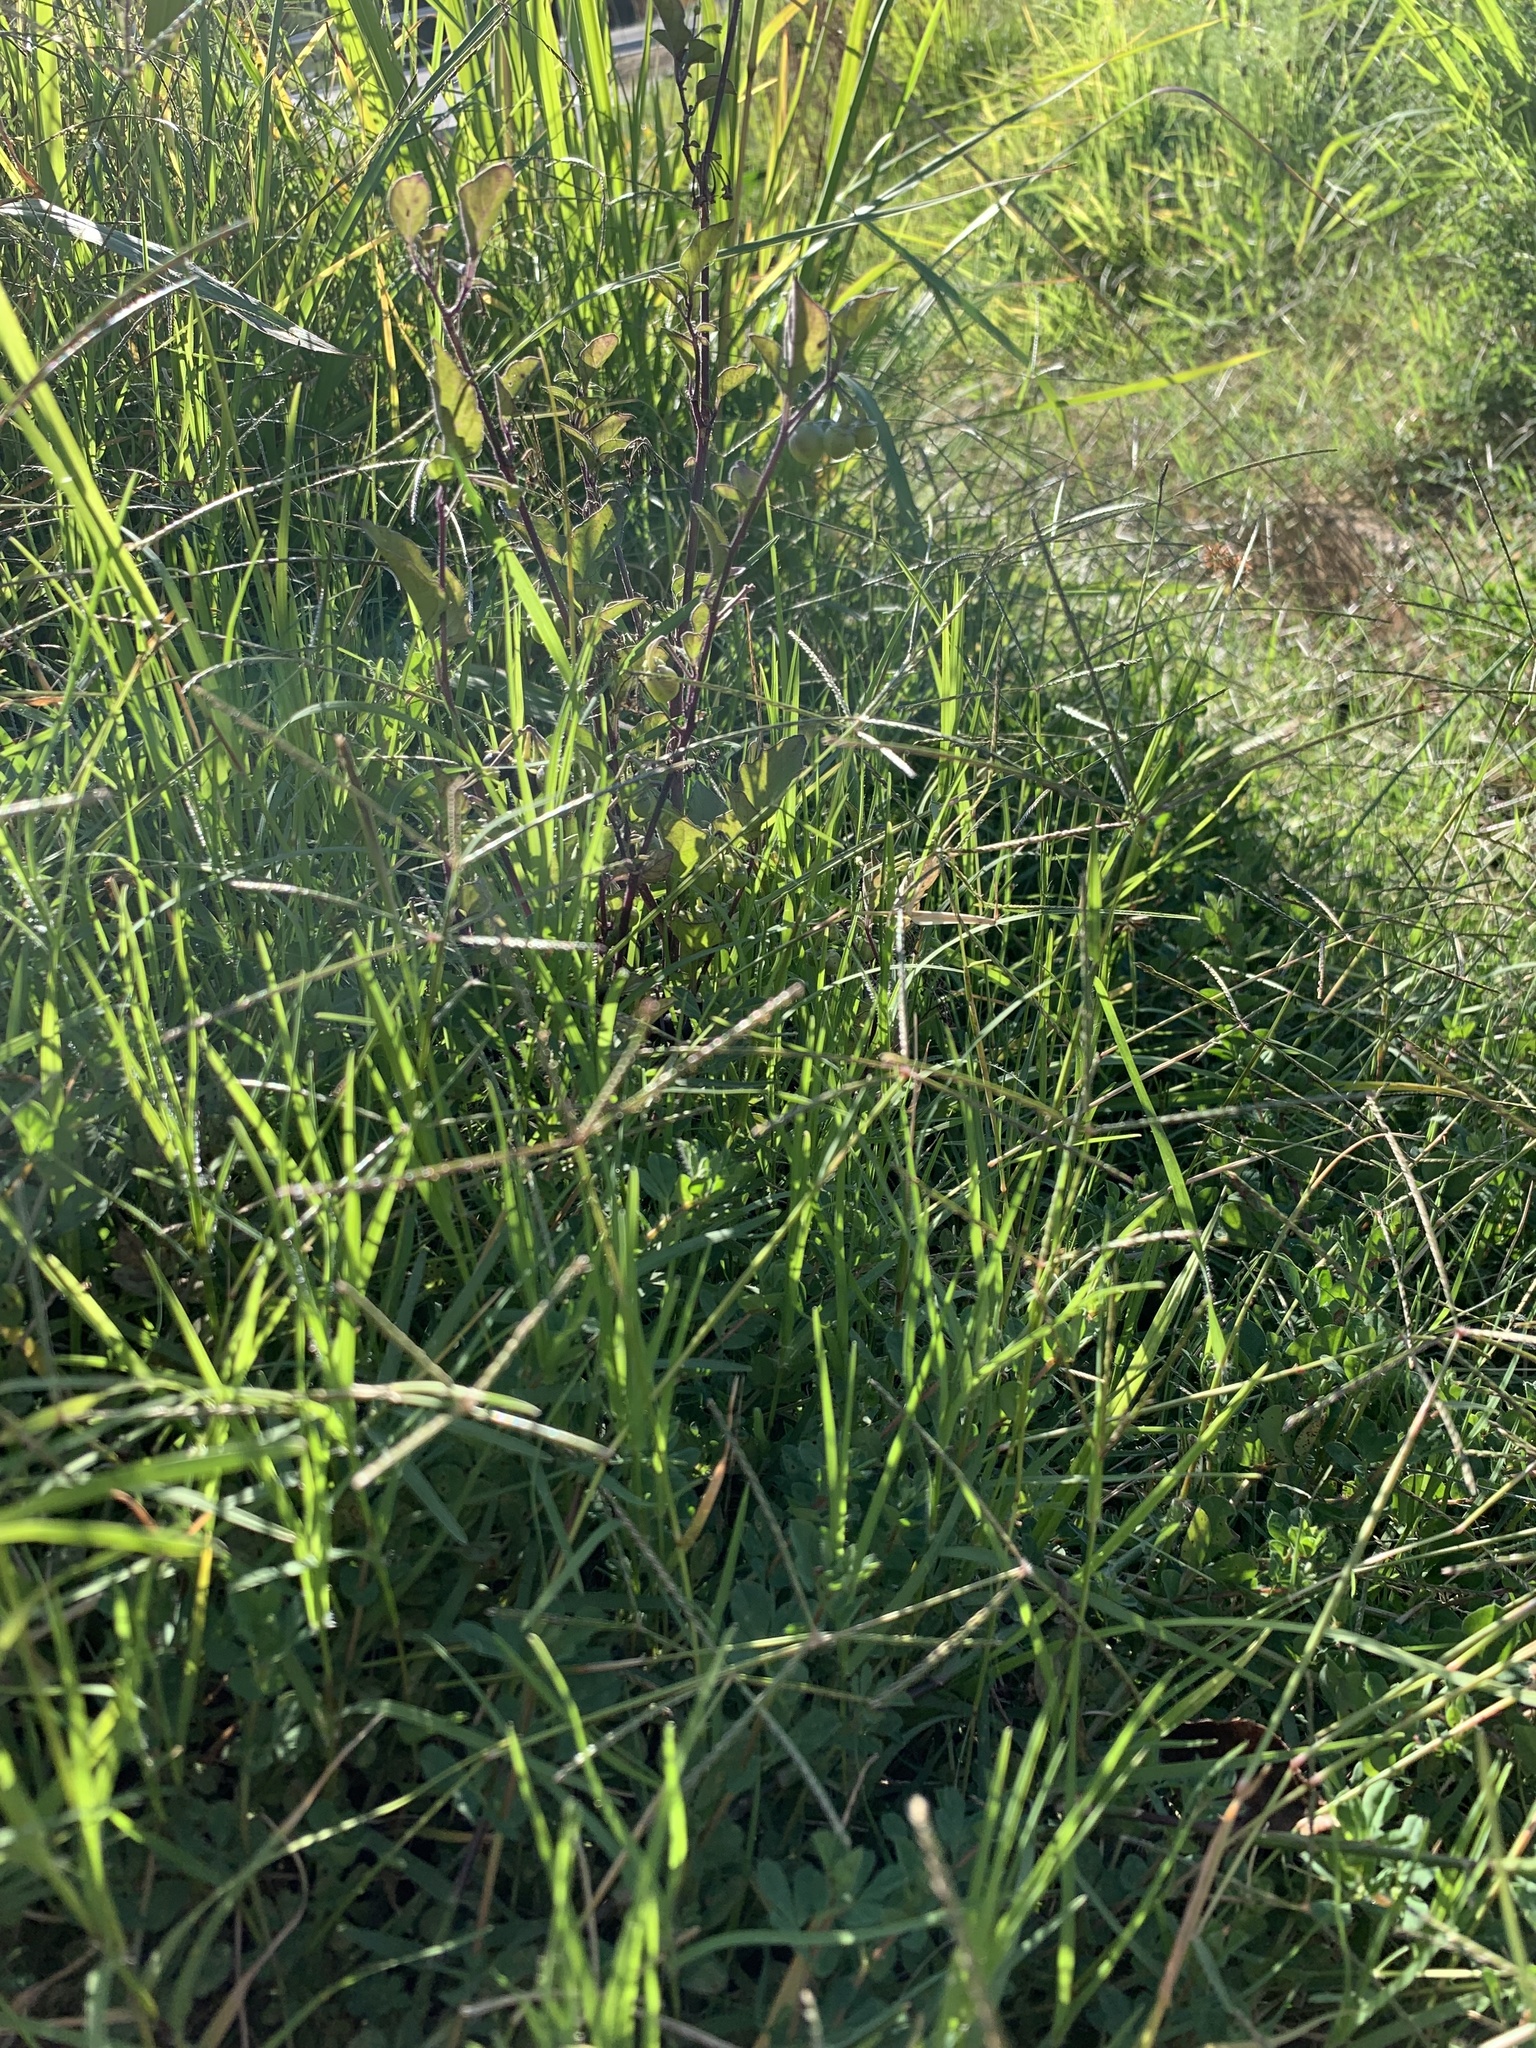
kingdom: Plantae
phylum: Tracheophyta
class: Liliopsida
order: Poales
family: Poaceae
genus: Cynodon
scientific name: Cynodon dactylon
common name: Bermuda grass
